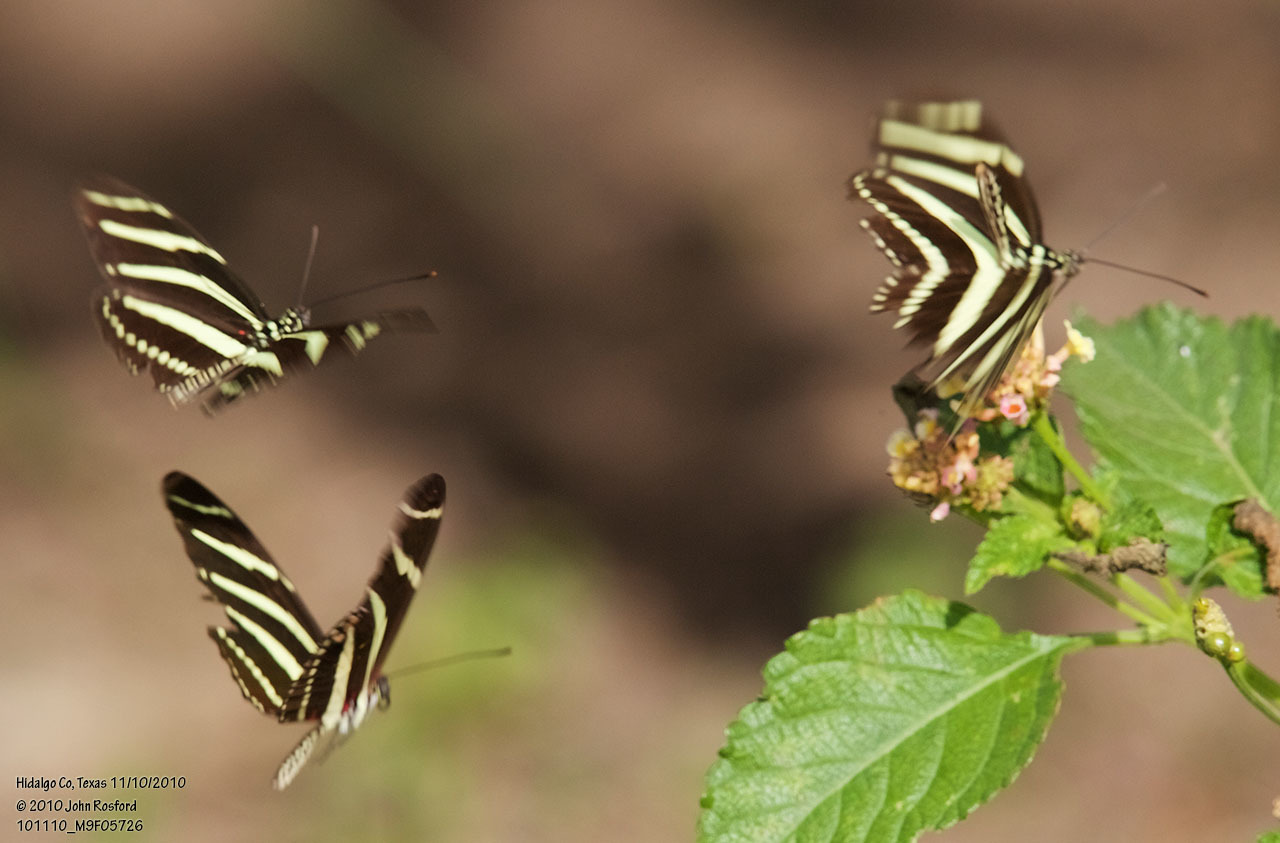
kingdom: Animalia
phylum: Arthropoda
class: Insecta
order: Lepidoptera
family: Nymphalidae
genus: Heliconius
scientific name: Heliconius charithonia
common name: Zebra long wing
